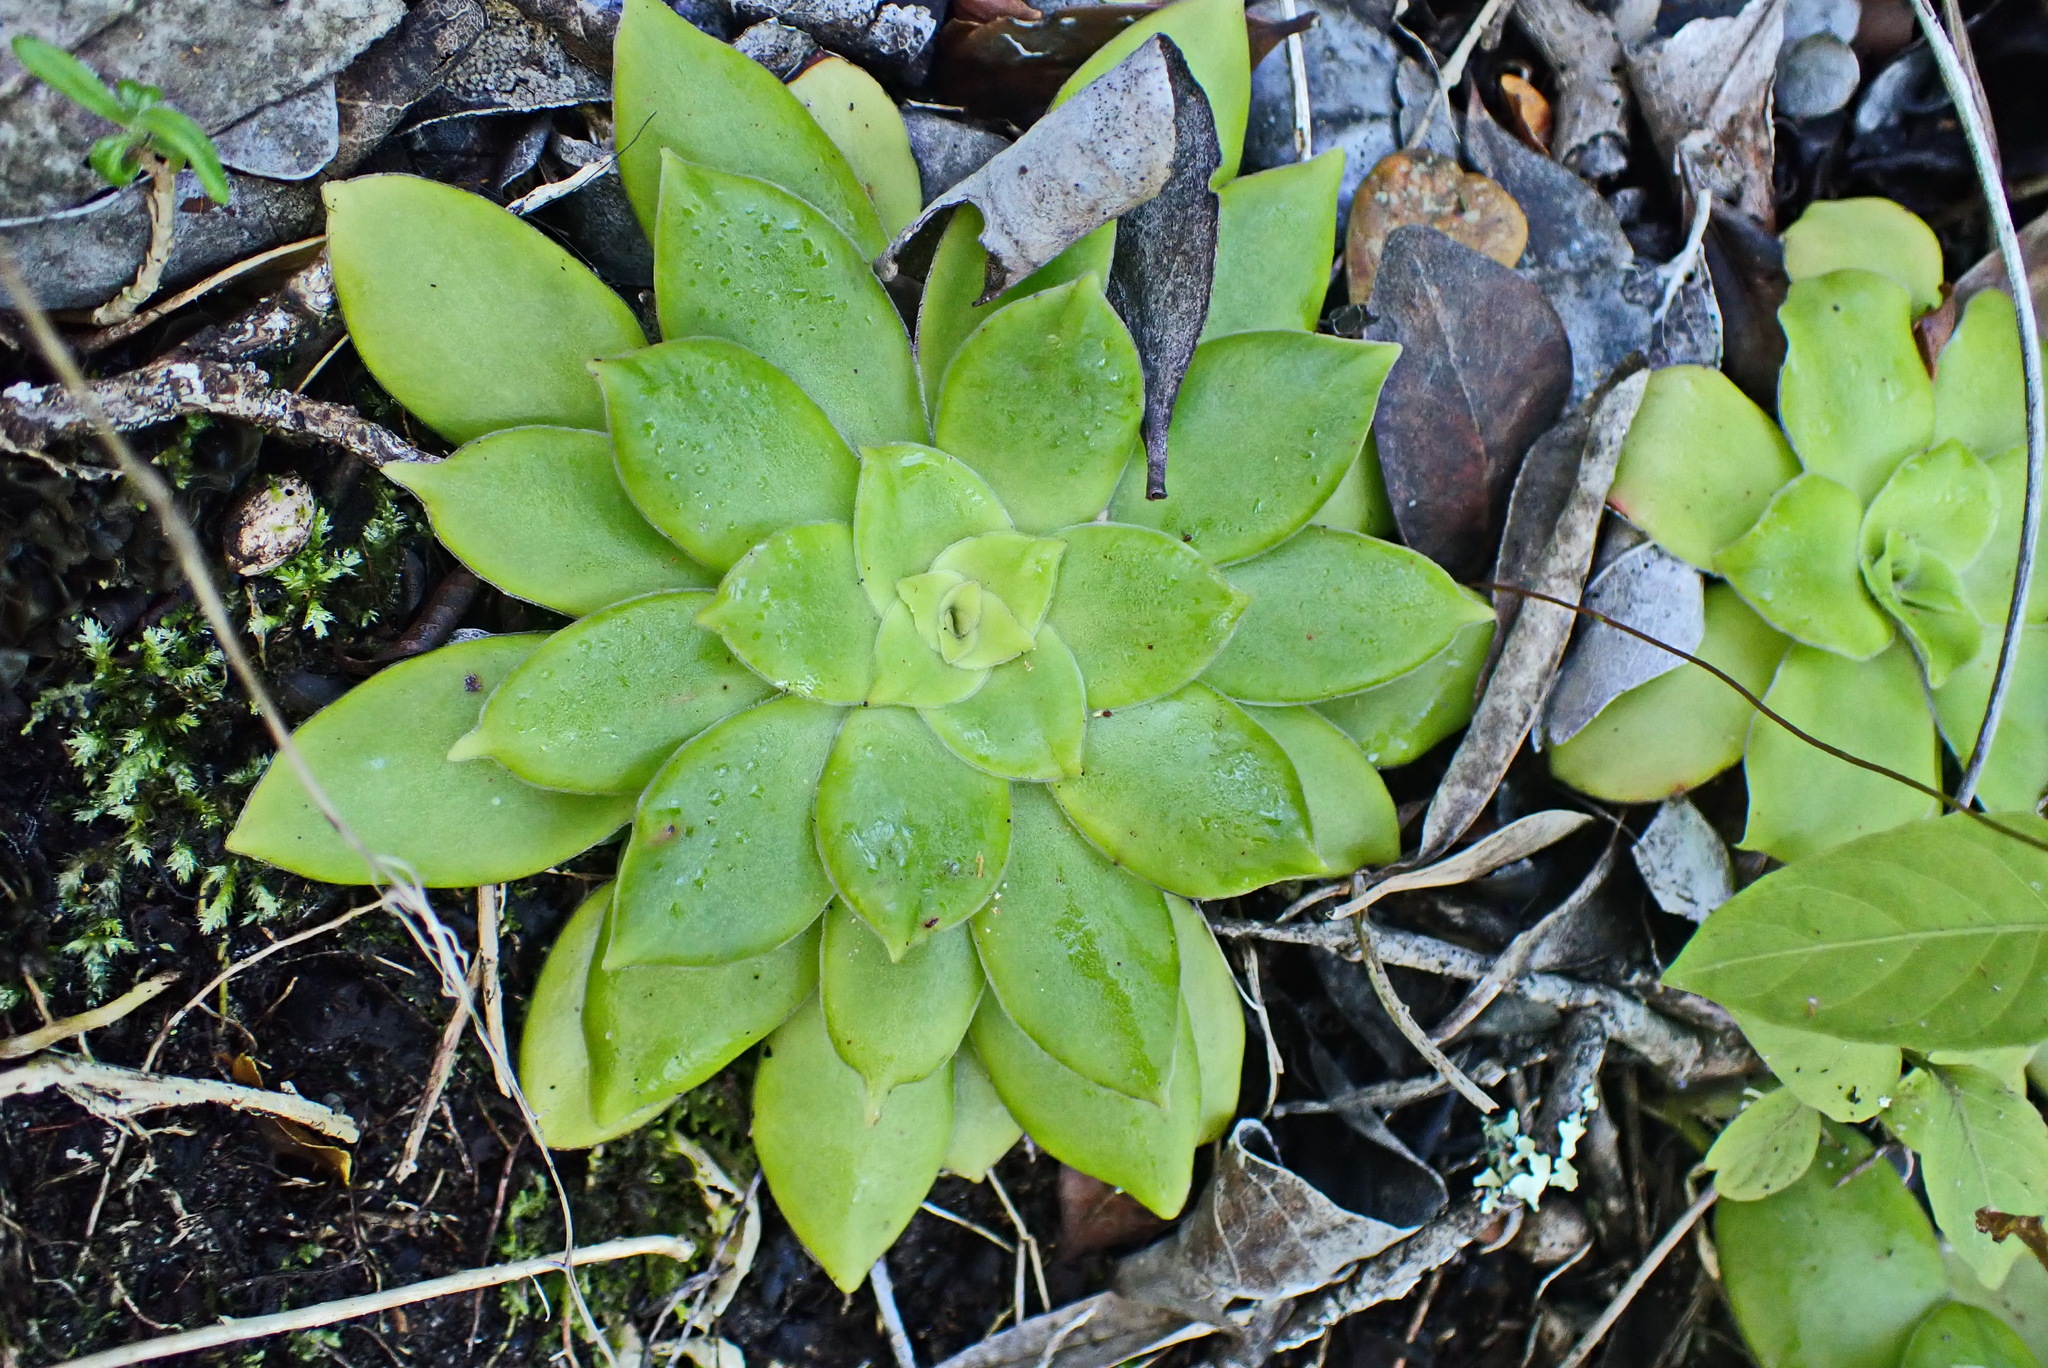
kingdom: Plantae
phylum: Tracheophyta
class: Magnoliopsida
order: Saxifragales
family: Crassulaceae
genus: Crassula
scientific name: Crassula orbicularis
